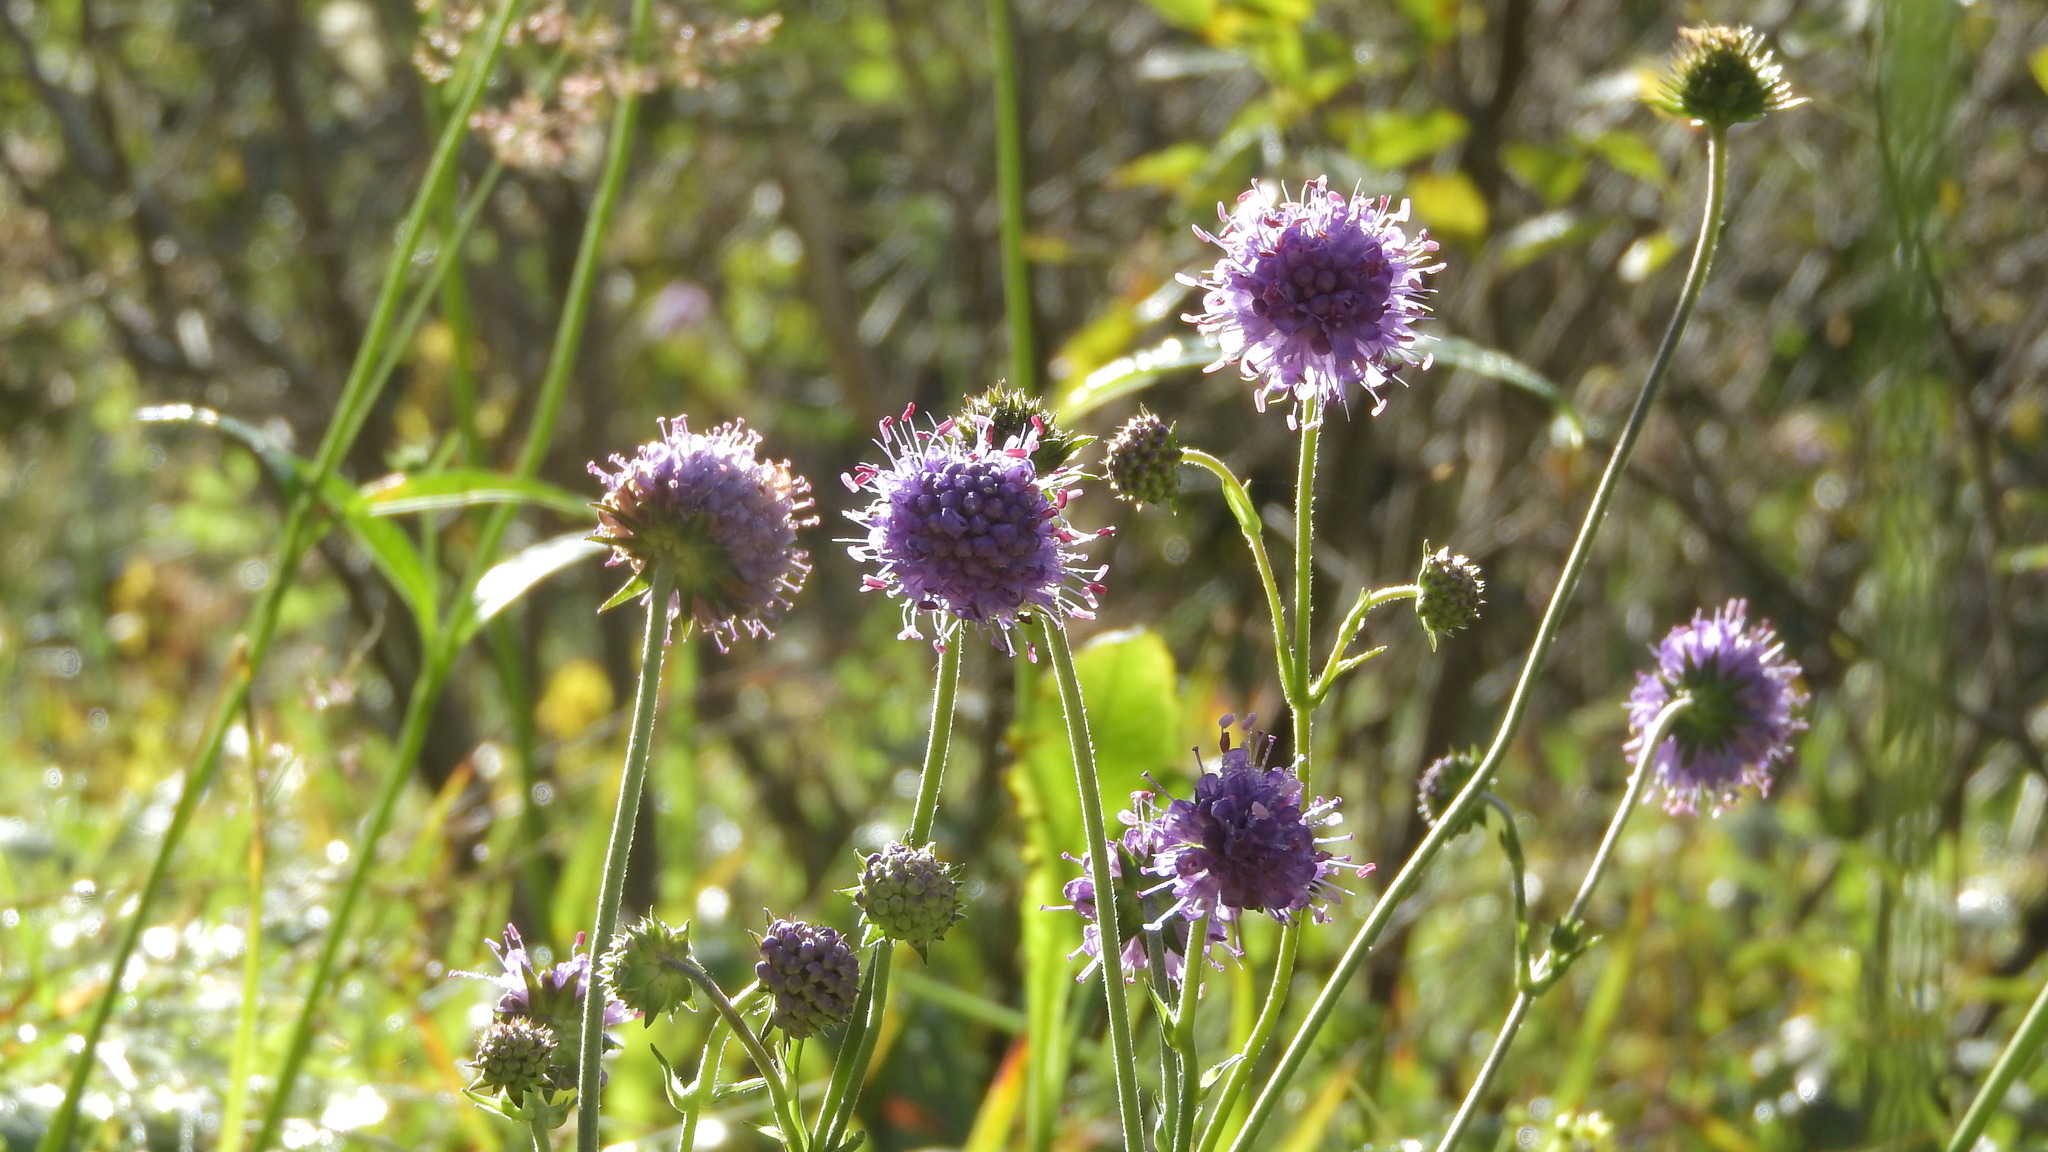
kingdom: Plantae
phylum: Tracheophyta
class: Magnoliopsida
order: Dipsacales
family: Caprifoliaceae
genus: Succisa
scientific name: Succisa pratensis
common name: Devil's-bit
